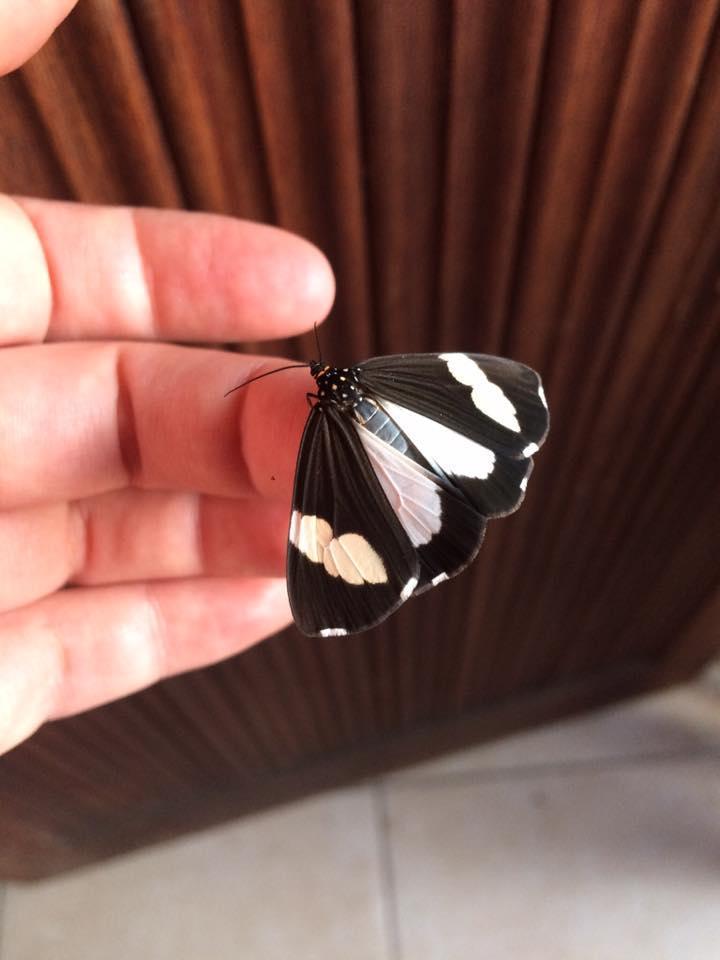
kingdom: Animalia
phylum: Arthropoda
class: Insecta
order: Lepidoptera
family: Erebidae
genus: Nyctemera
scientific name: Nyctemera
